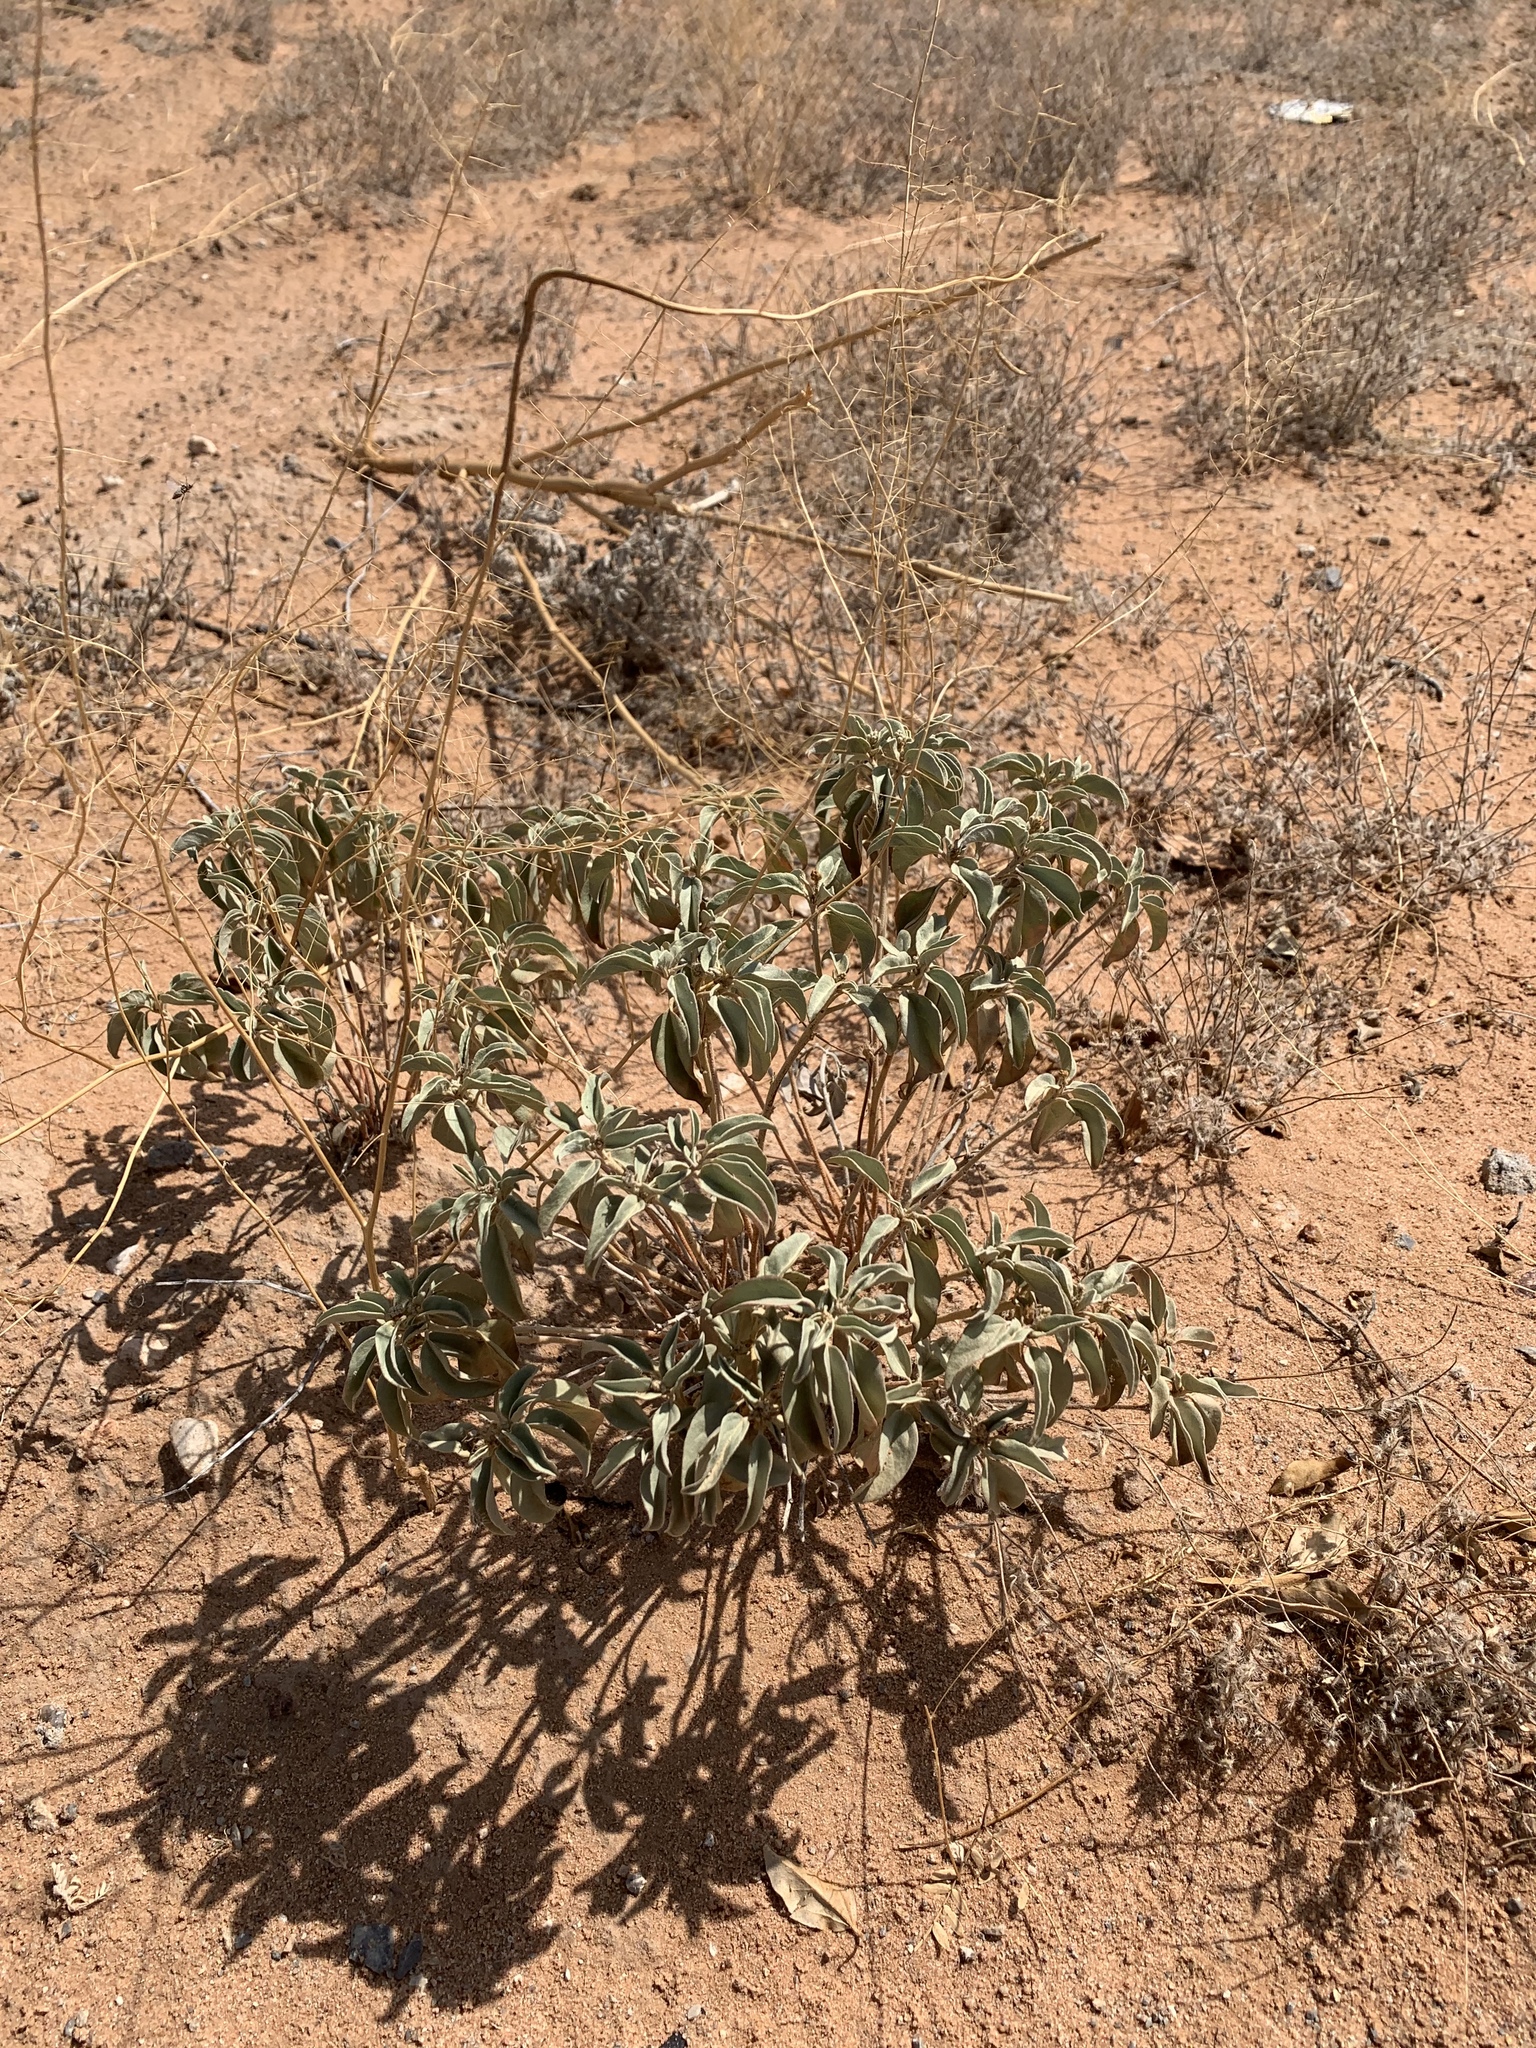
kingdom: Plantae
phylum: Tracheophyta
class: Magnoliopsida
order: Malpighiales
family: Euphorbiaceae
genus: Croton
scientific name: Croton pottsii
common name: Leatherweed
